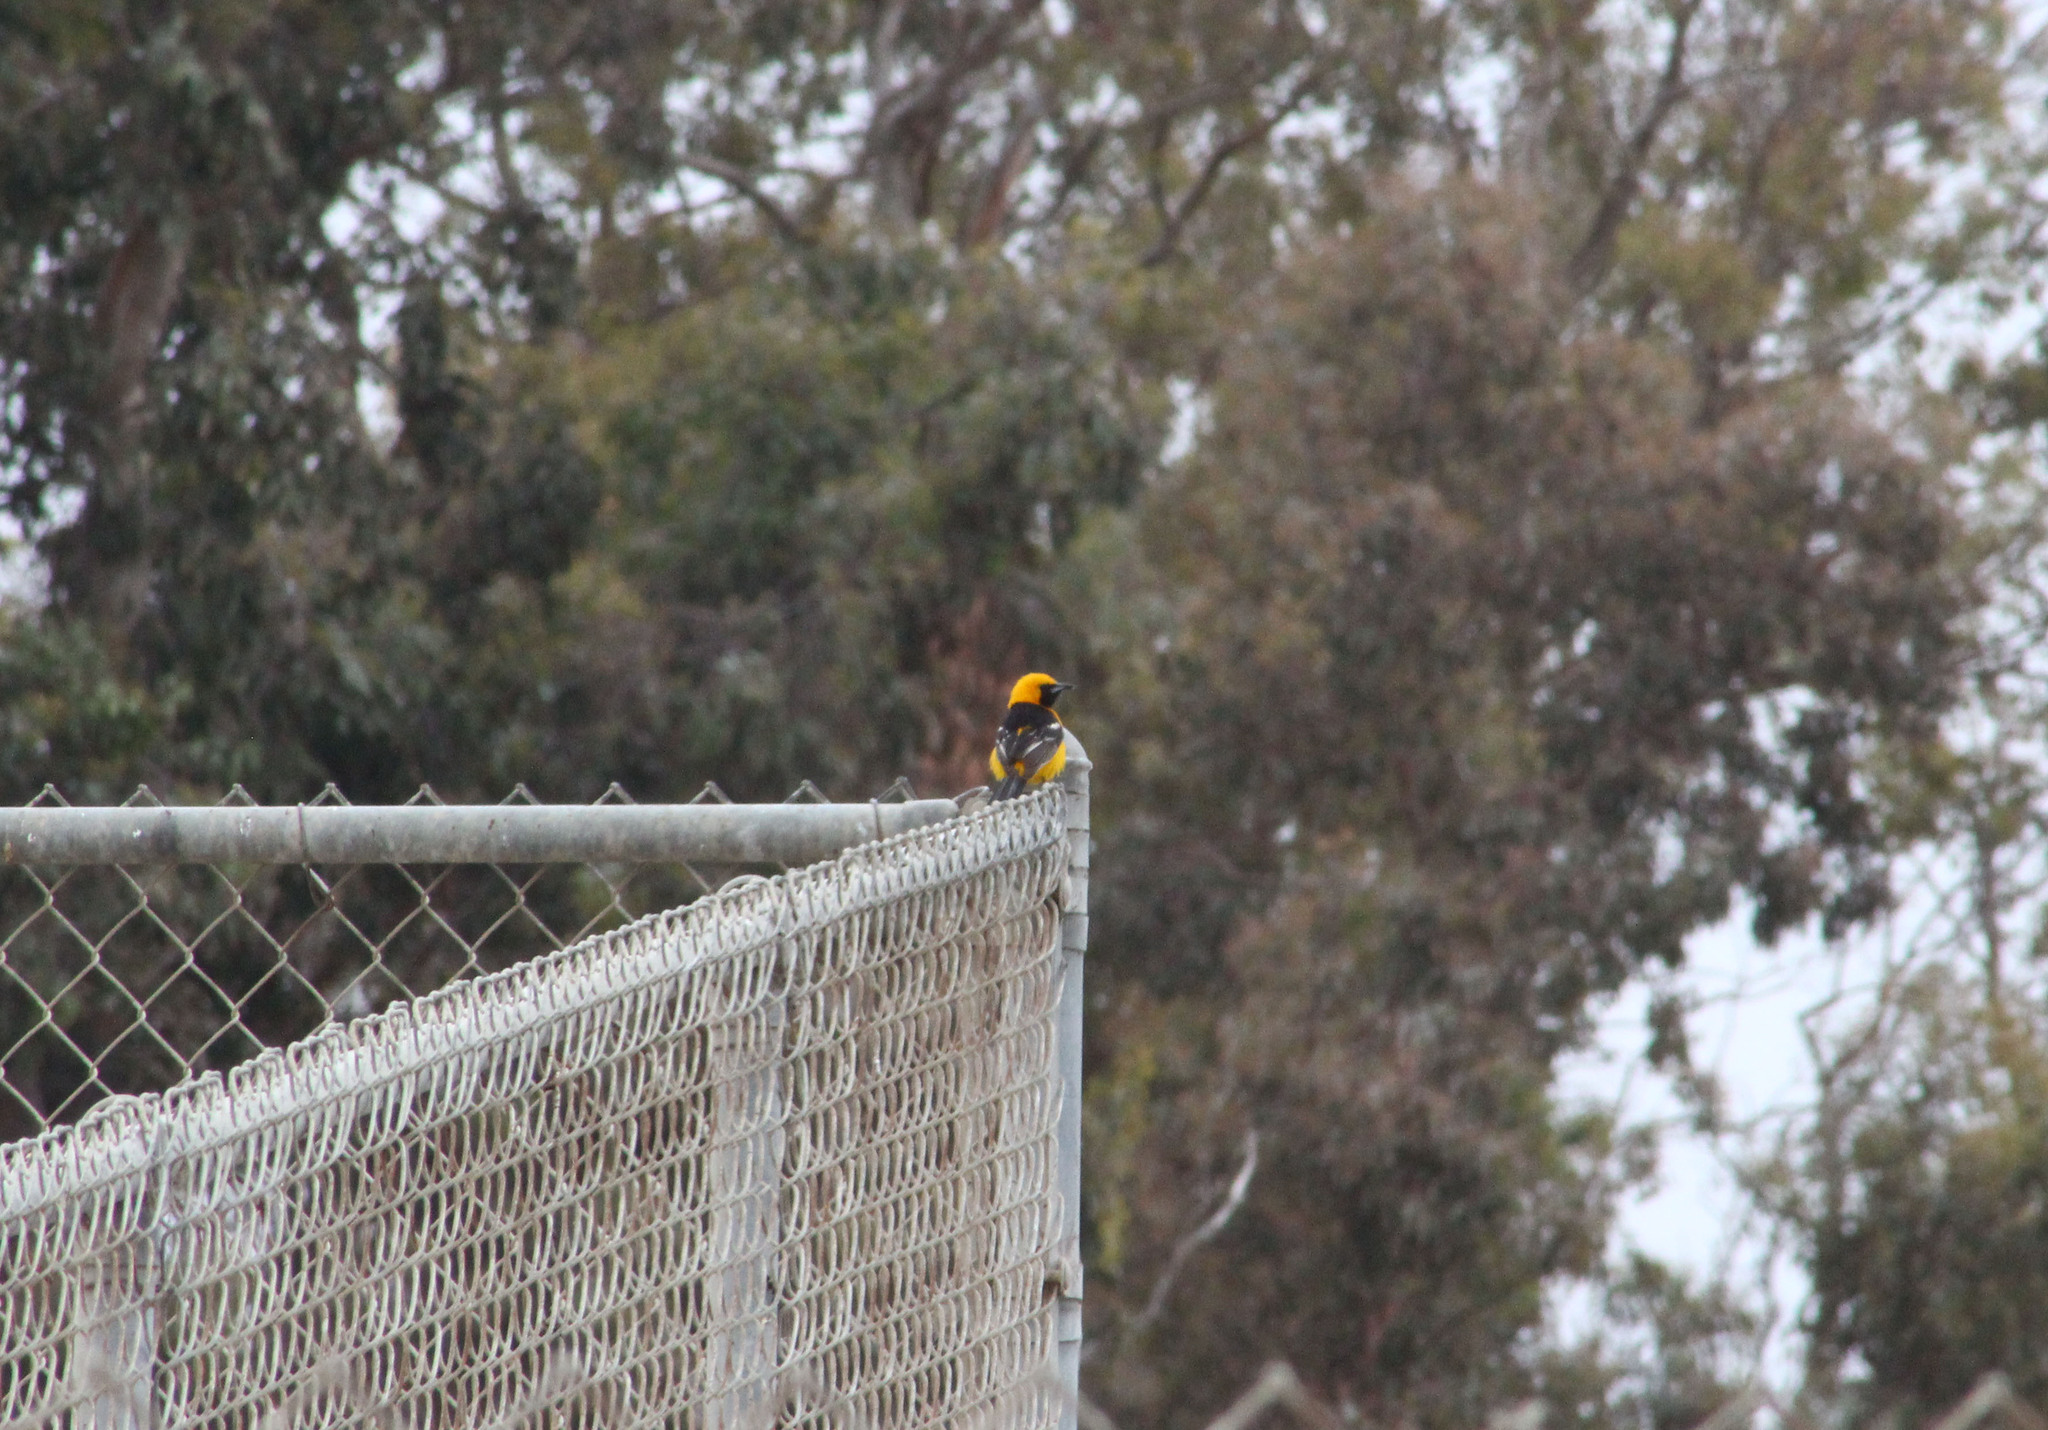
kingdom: Animalia
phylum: Chordata
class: Aves
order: Passeriformes
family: Icteridae
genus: Icterus
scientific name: Icterus cucullatus
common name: Hooded oriole
